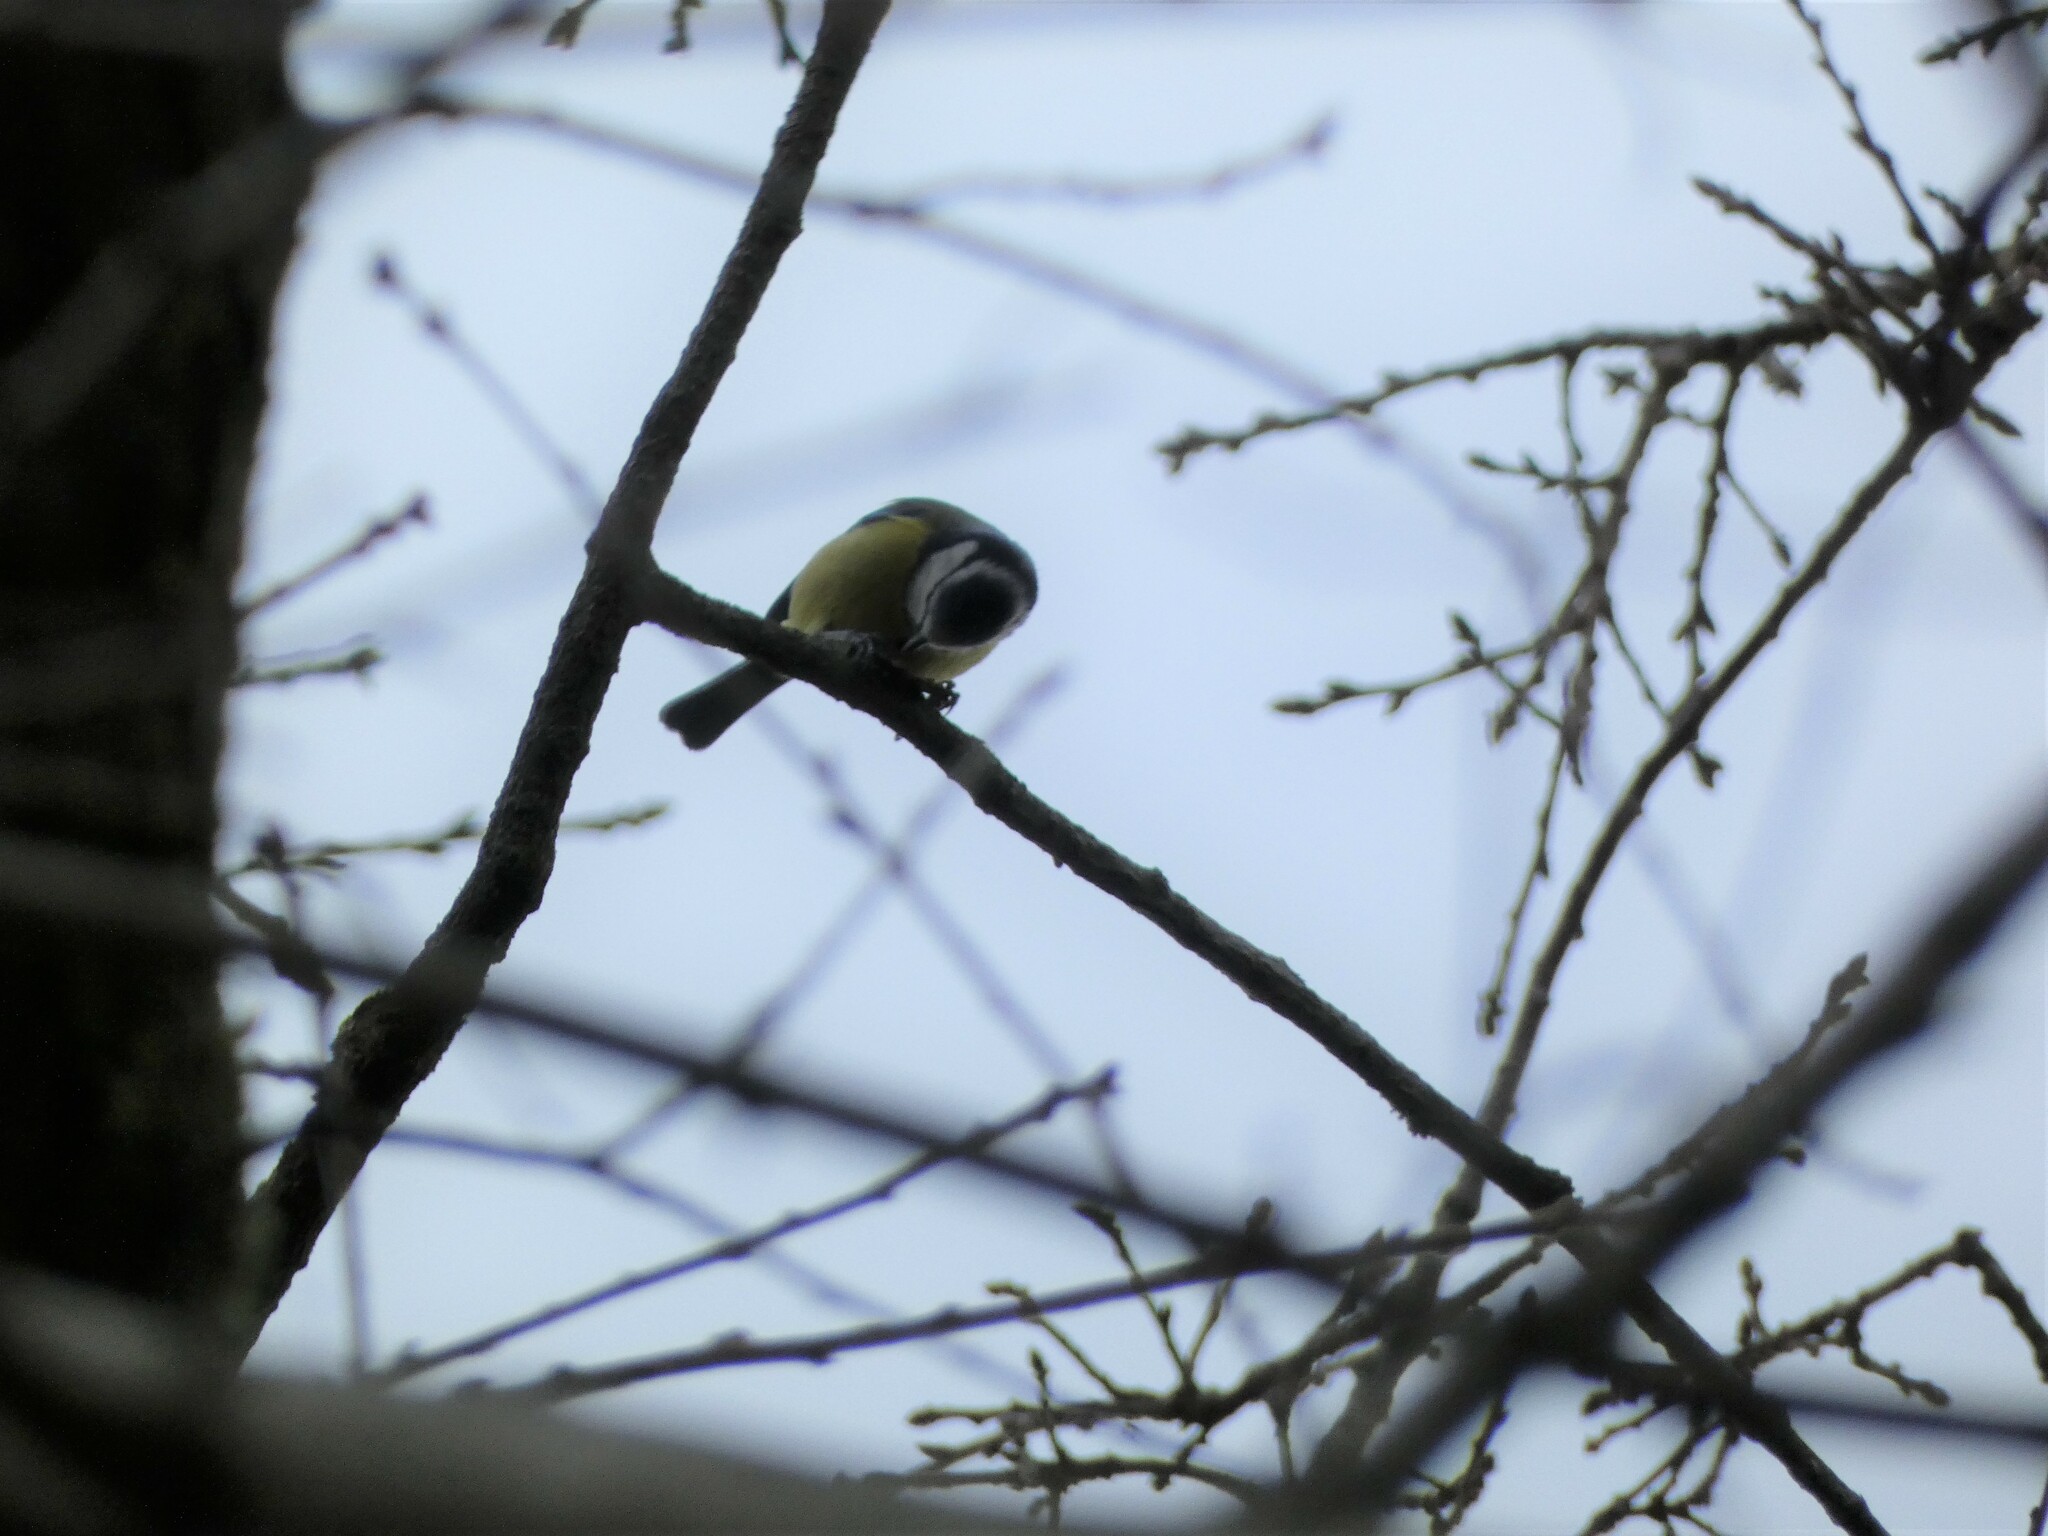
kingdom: Animalia
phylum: Chordata
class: Aves
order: Passeriformes
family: Paridae
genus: Cyanistes
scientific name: Cyanistes caeruleus
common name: Eurasian blue tit
